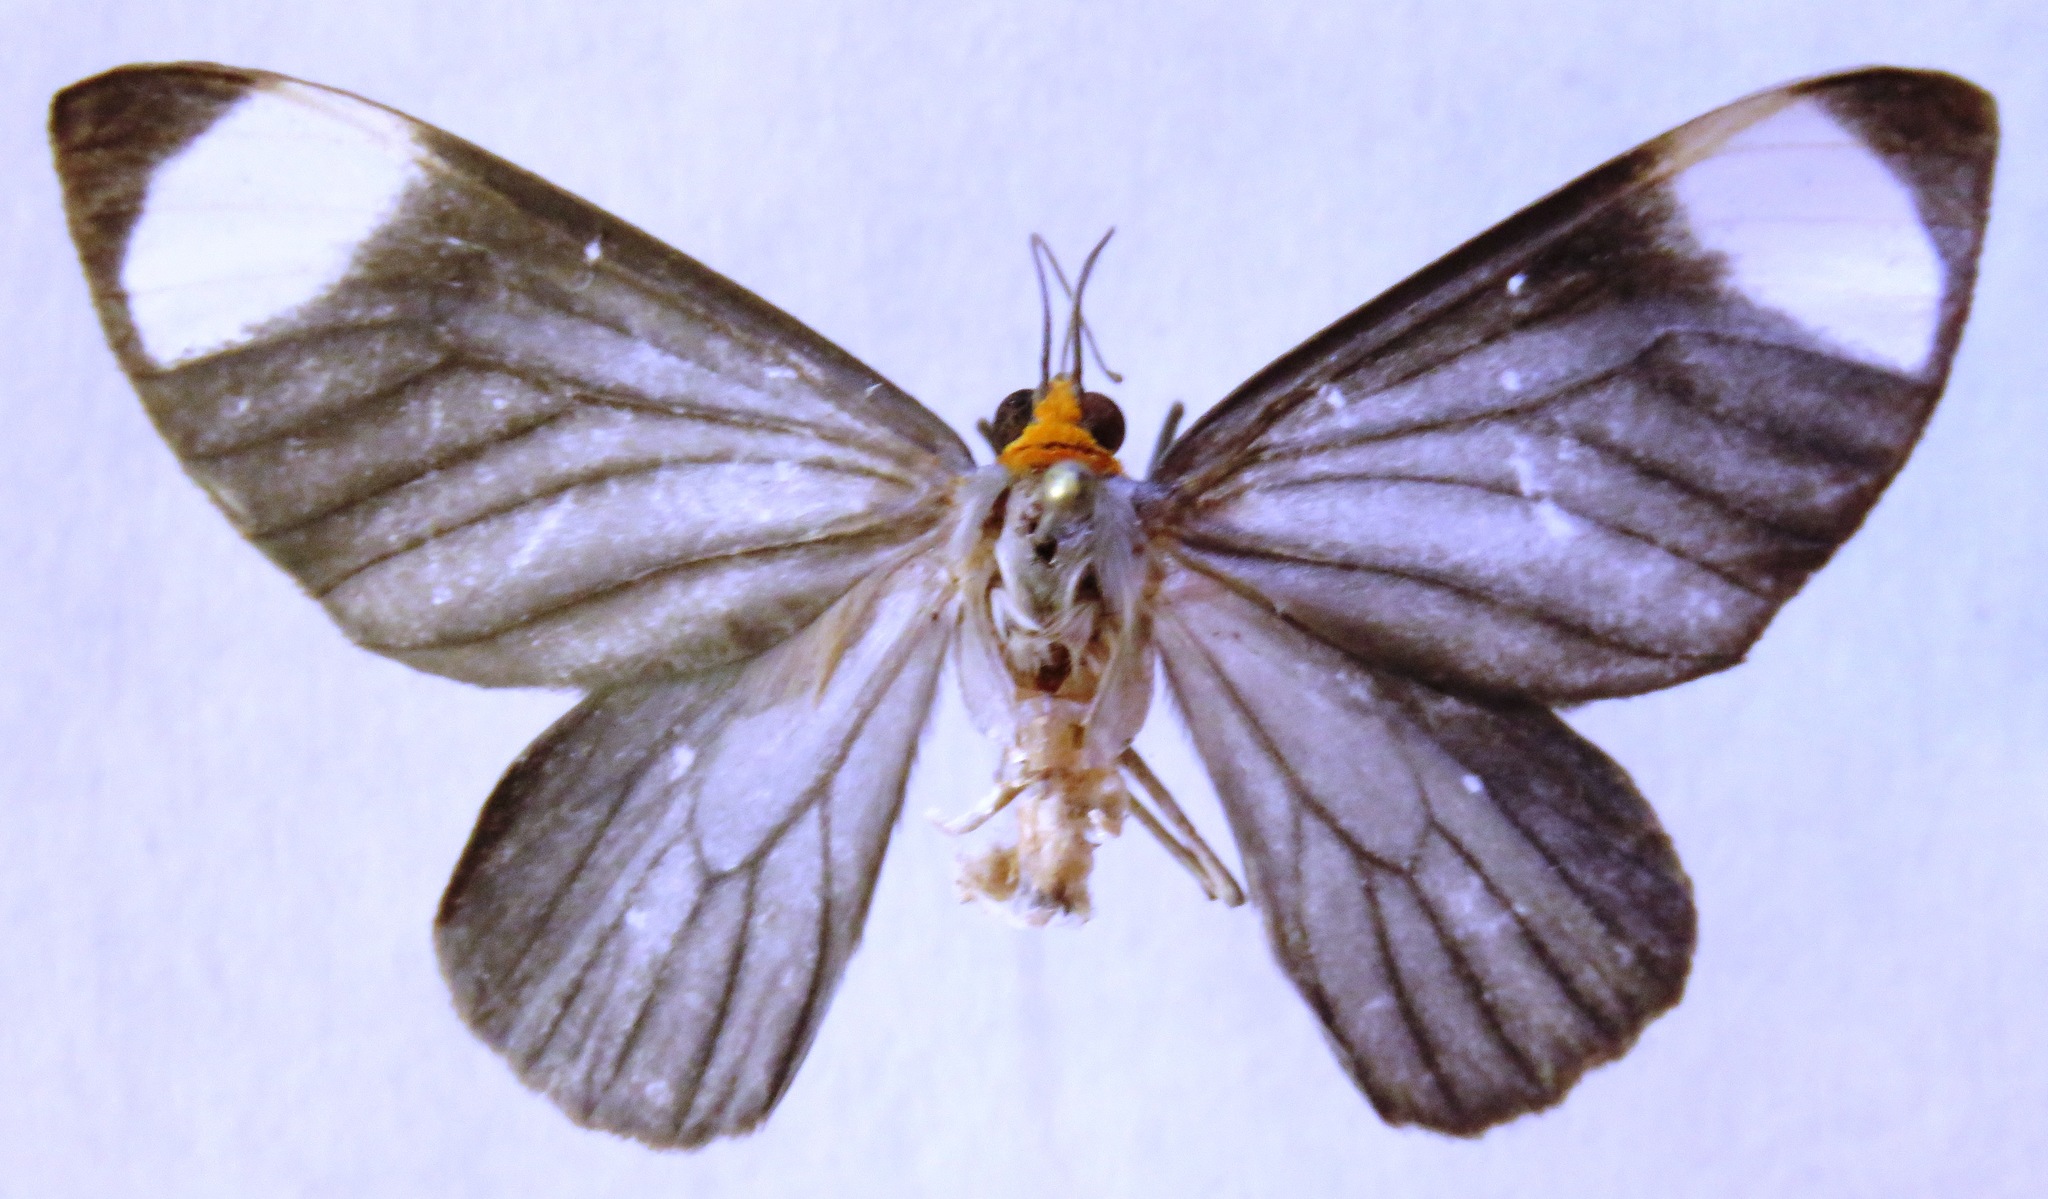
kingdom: Animalia
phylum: Arthropoda
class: Insecta
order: Lepidoptera
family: Geometridae
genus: Crocypus
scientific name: Crocypus perlucidaria
